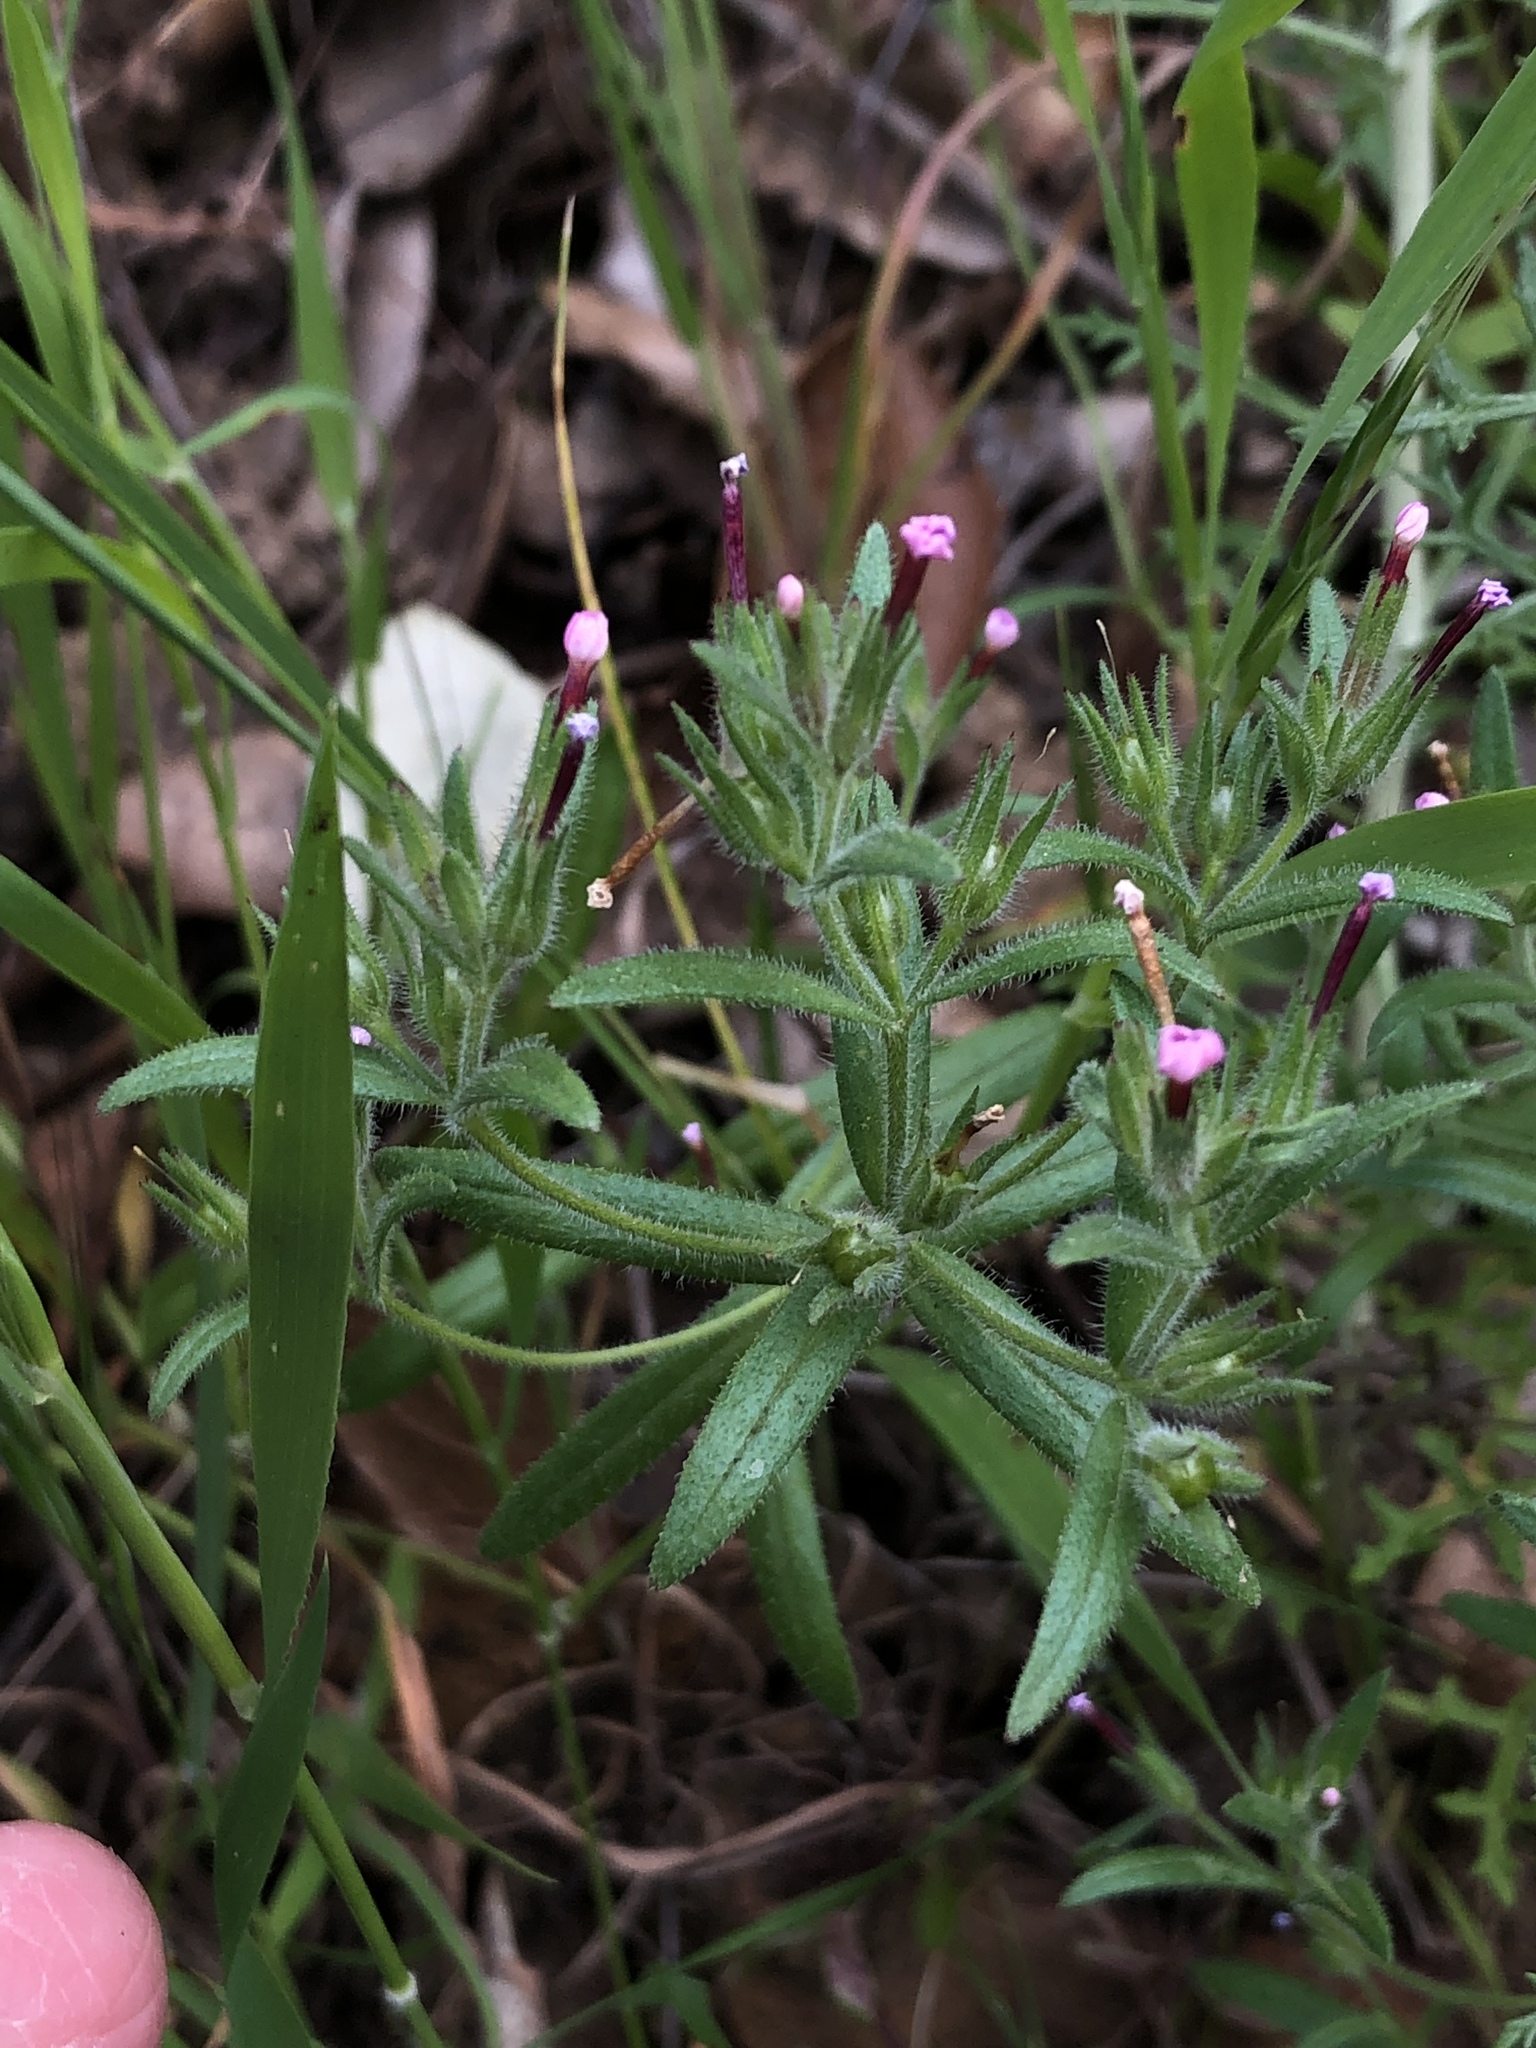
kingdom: Plantae
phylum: Tracheophyta
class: Magnoliopsida
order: Ericales
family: Polemoniaceae
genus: Phlox
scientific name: Phlox gracilis
